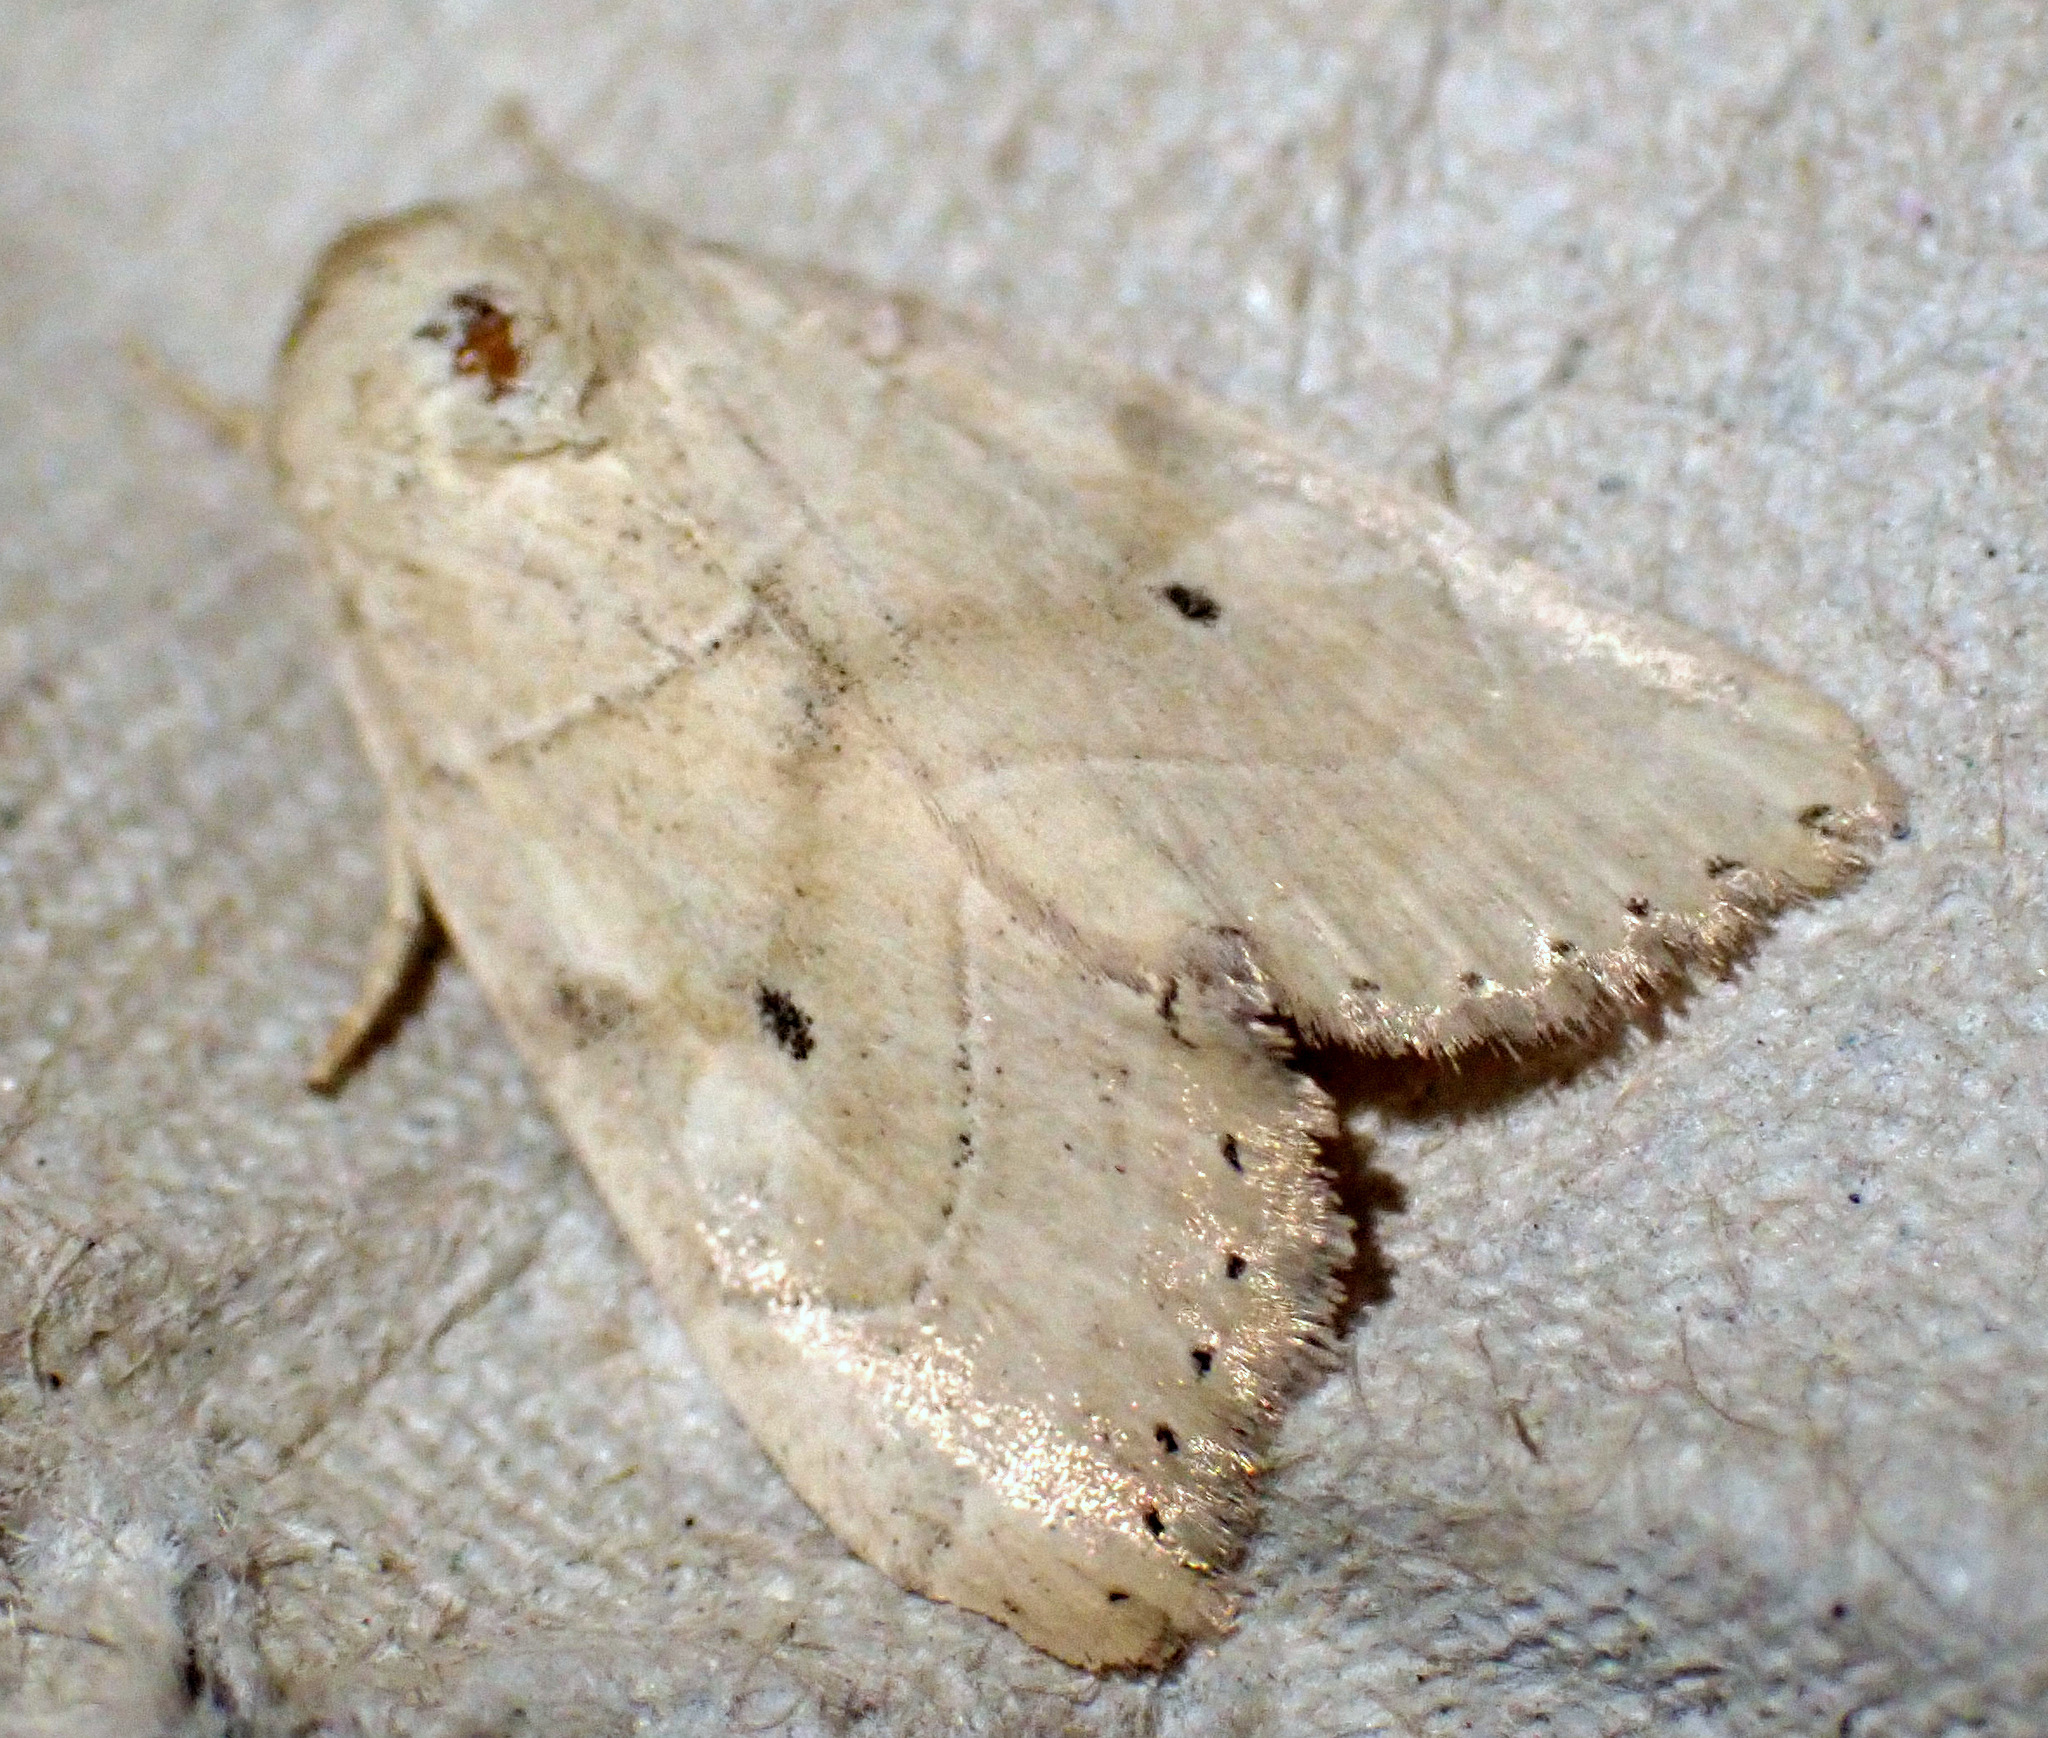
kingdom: Animalia
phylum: Arthropoda
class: Insecta
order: Lepidoptera
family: Noctuidae
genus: Cosmia
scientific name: Cosmia trapezina
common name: Dun-bar
